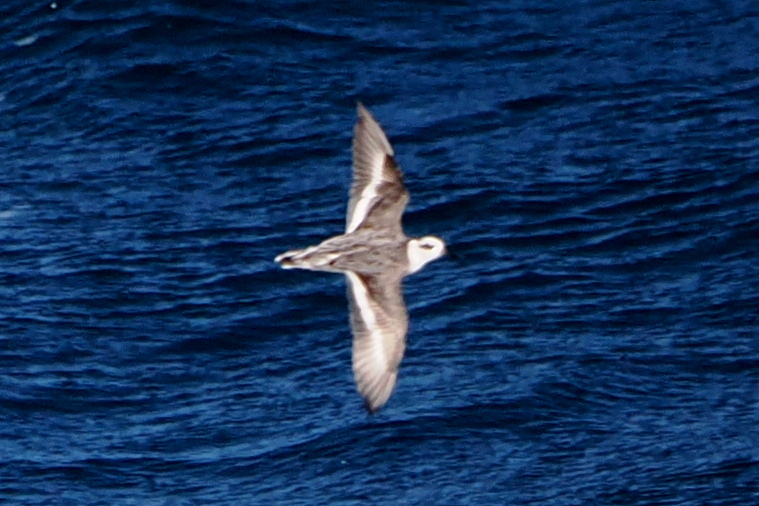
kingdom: Animalia
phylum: Chordata
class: Aves
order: Charadriiformes
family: Scolopacidae
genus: Phalaropus
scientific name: Phalaropus fulicarius
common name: Red phalarope
